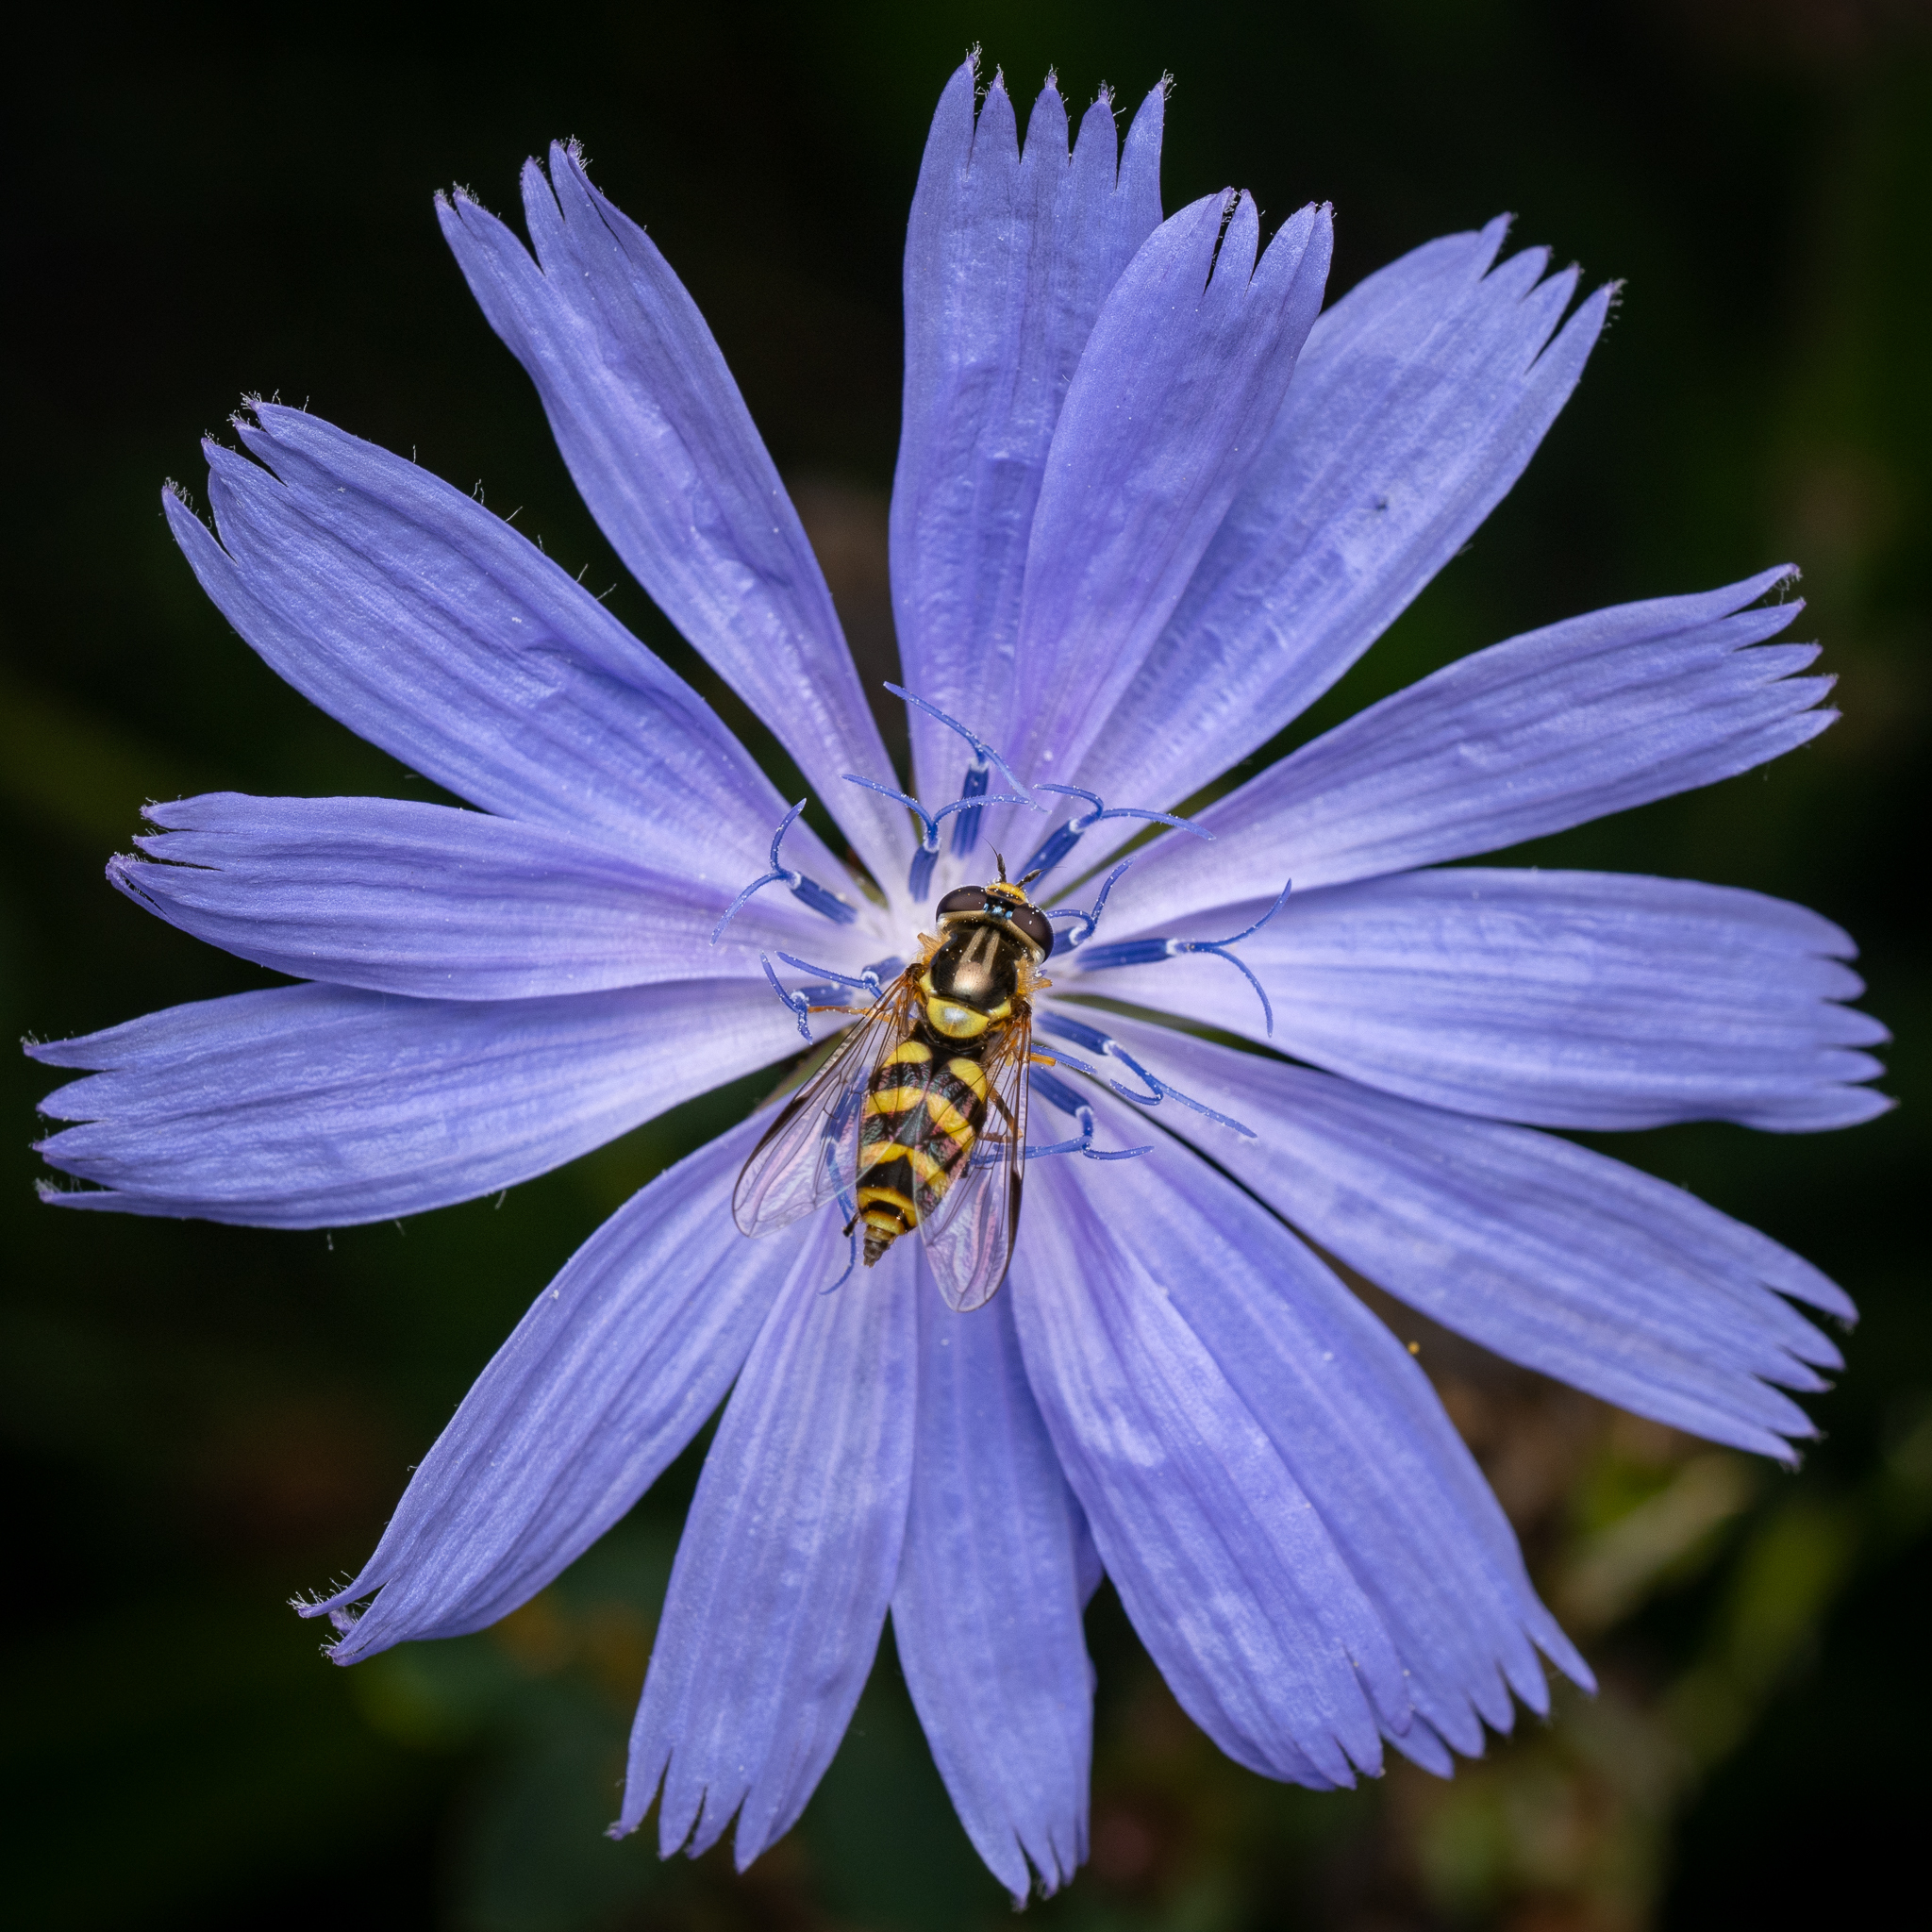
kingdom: Animalia
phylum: Arthropoda
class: Insecta
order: Diptera
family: Syrphidae
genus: Dasysyrphus
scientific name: Dasysyrphus albostriatus
